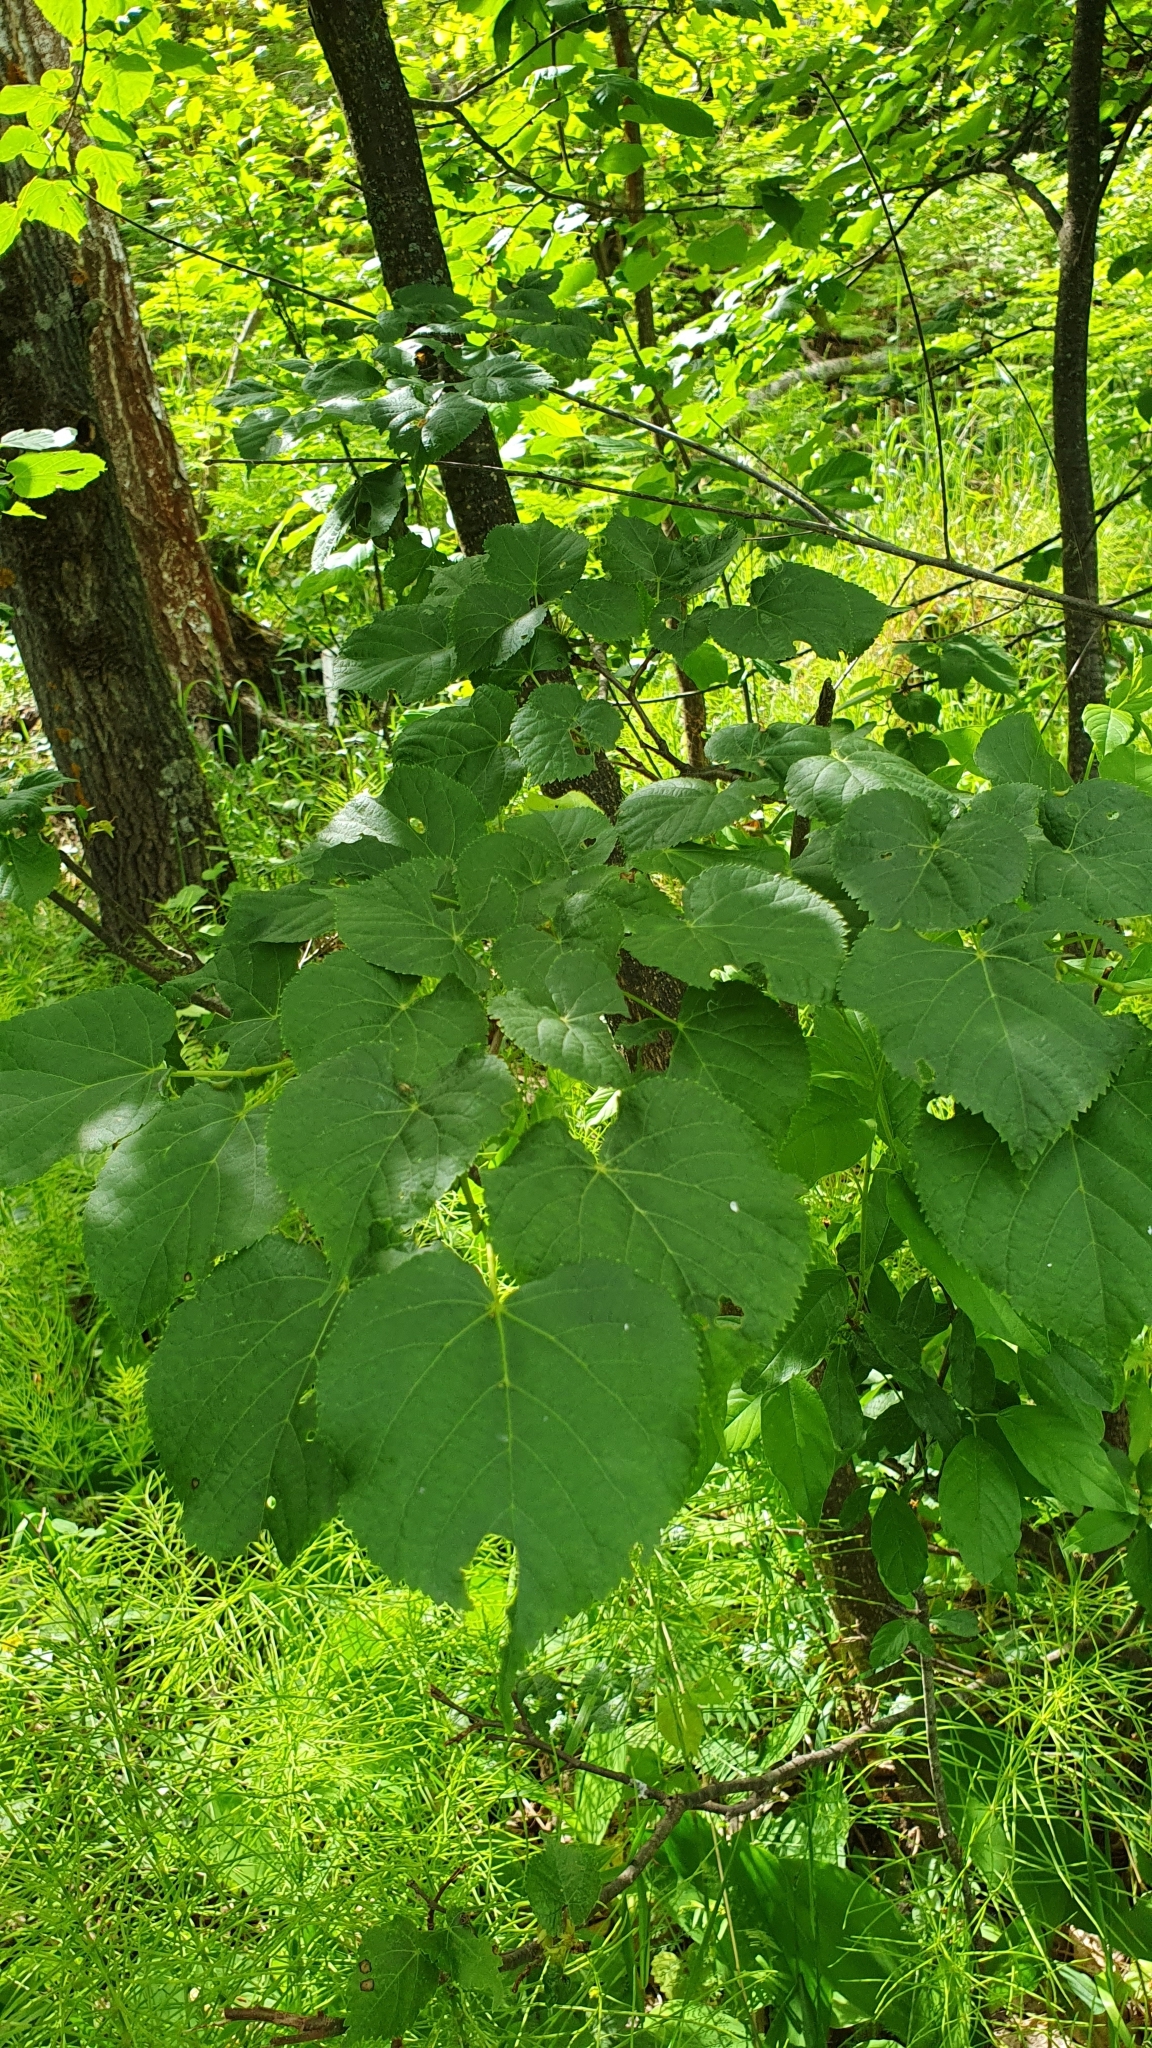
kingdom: Plantae
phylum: Tracheophyta
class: Magnoliopsida
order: Malvales
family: Malvaceae
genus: Tilia
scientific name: Tilia cordata
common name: Small-leaved lime
